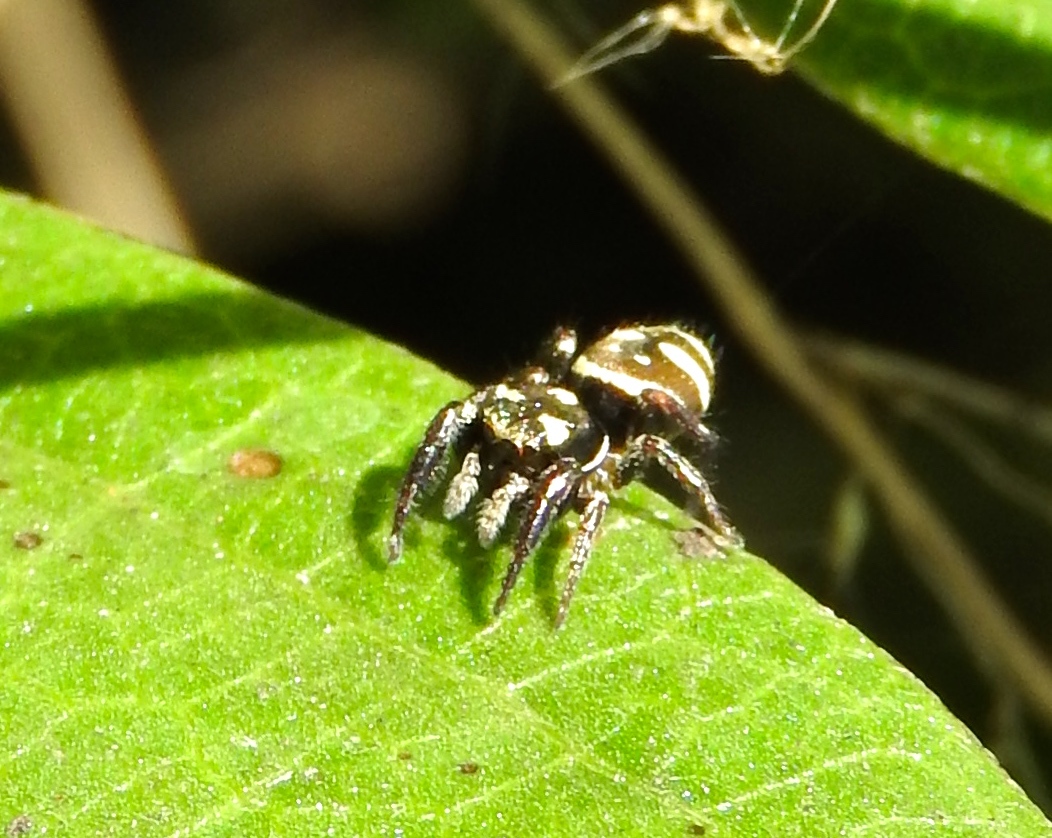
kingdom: Animalia
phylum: Arthropoda
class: Arachnida
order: Araneae
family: Salticidae
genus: Sassacus
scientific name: Sassacus
